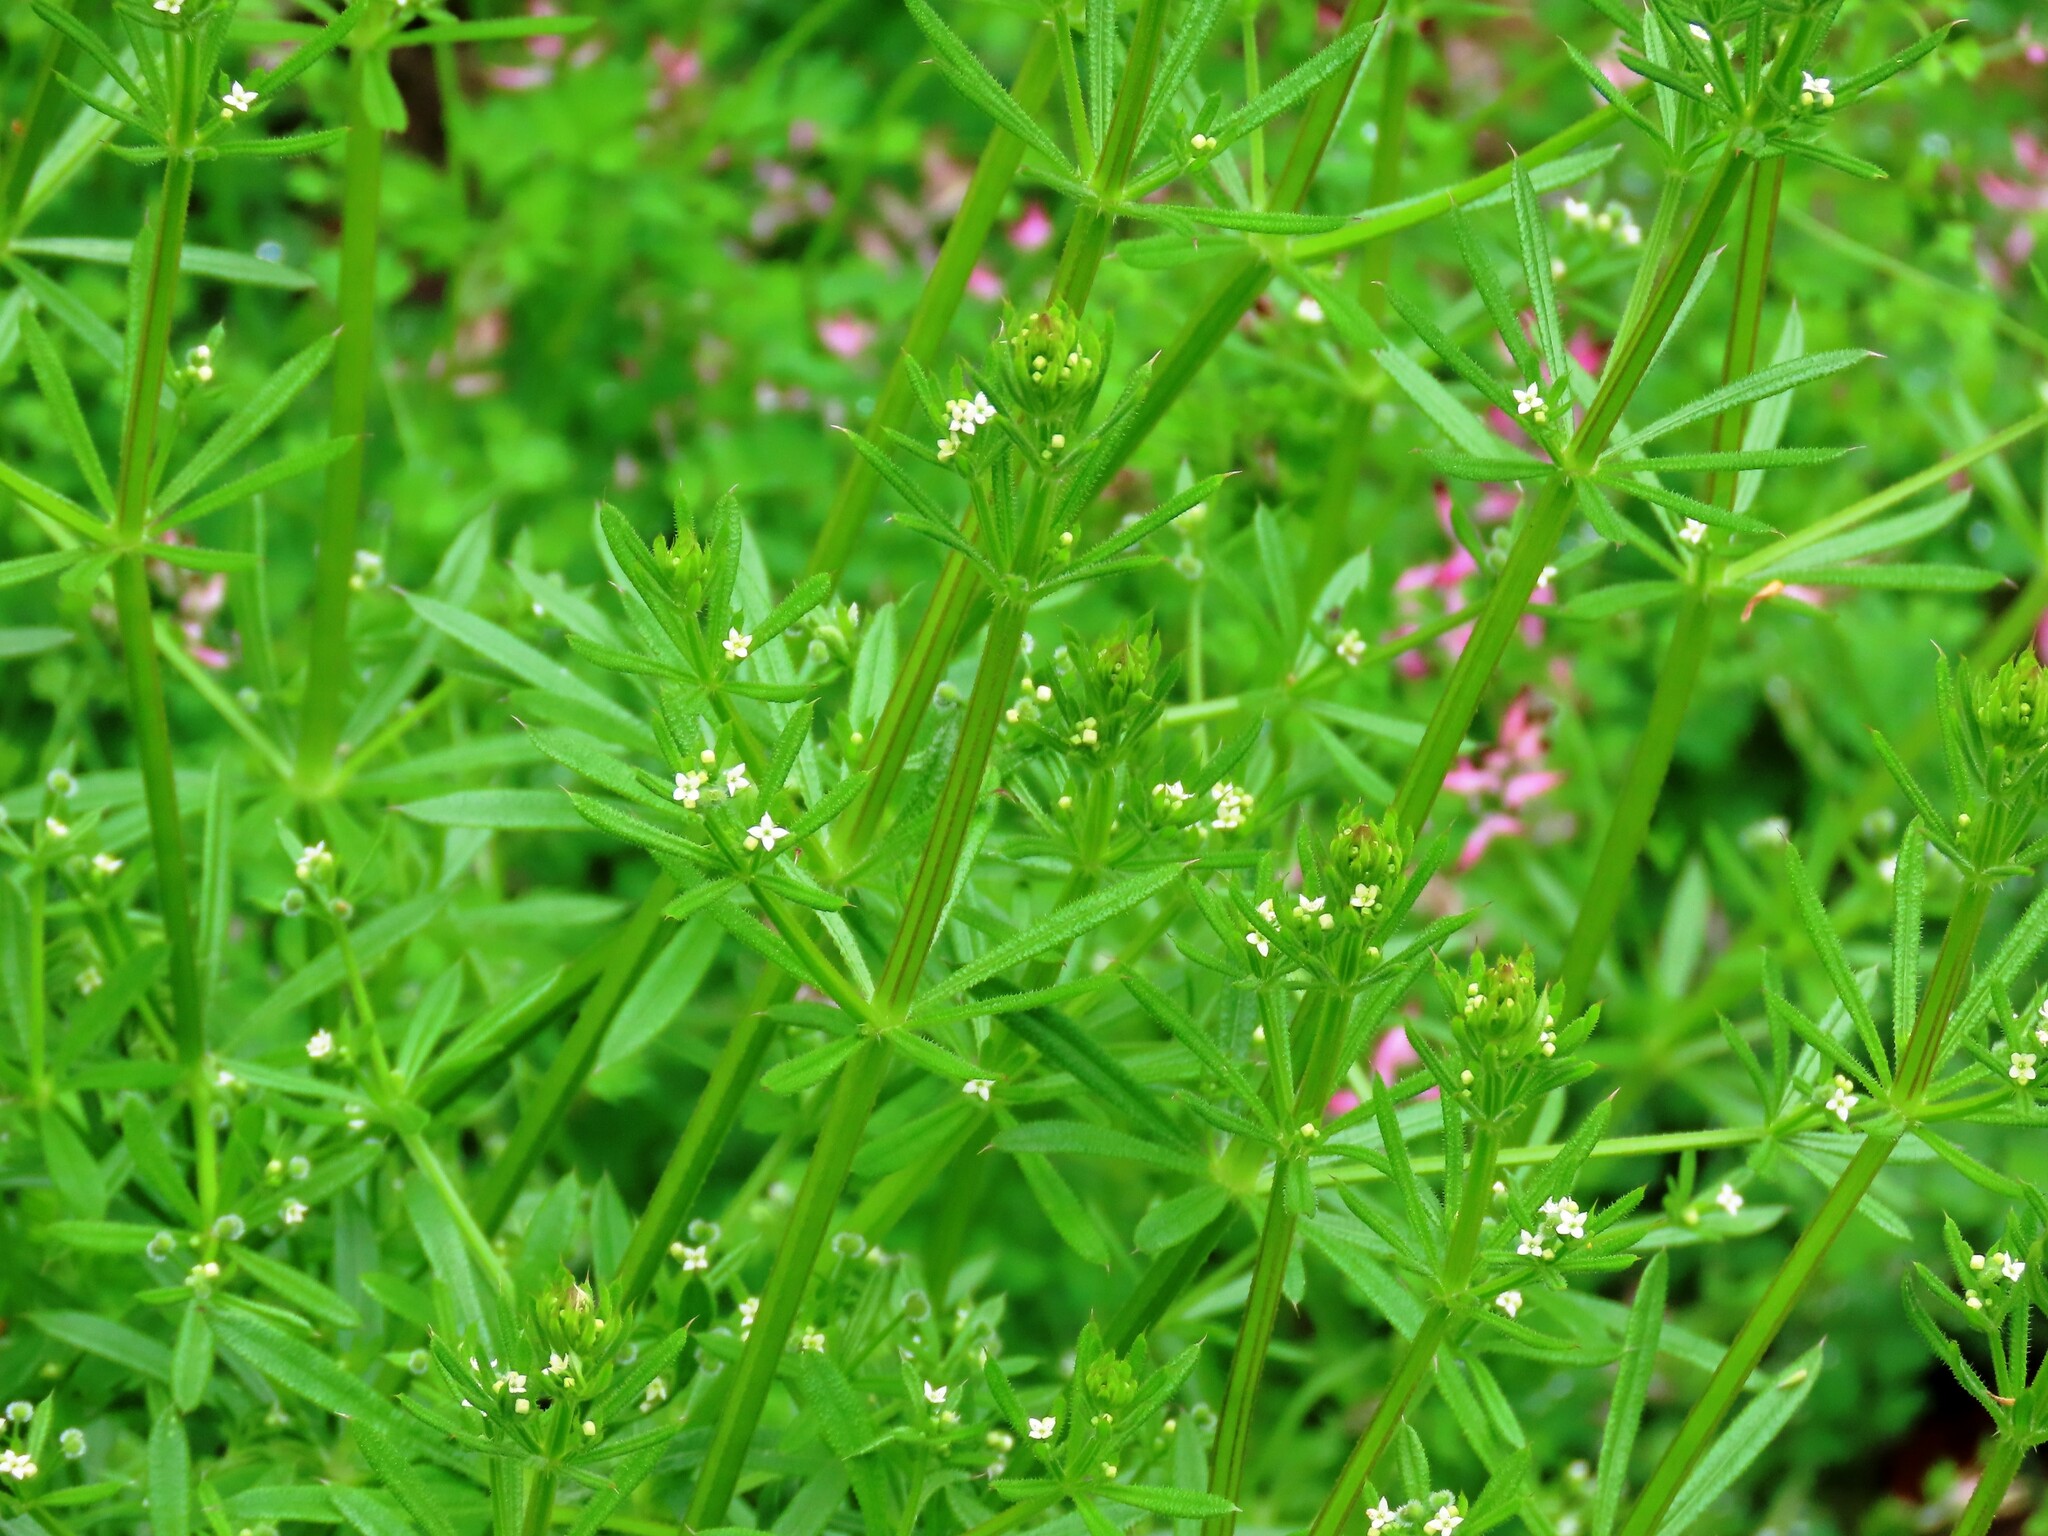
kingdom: Plantae
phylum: Tracheophyta
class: Magnoliopsida
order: Gentianales
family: Rubiaceae
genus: Galium
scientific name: Galium aparine
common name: Cleavers
